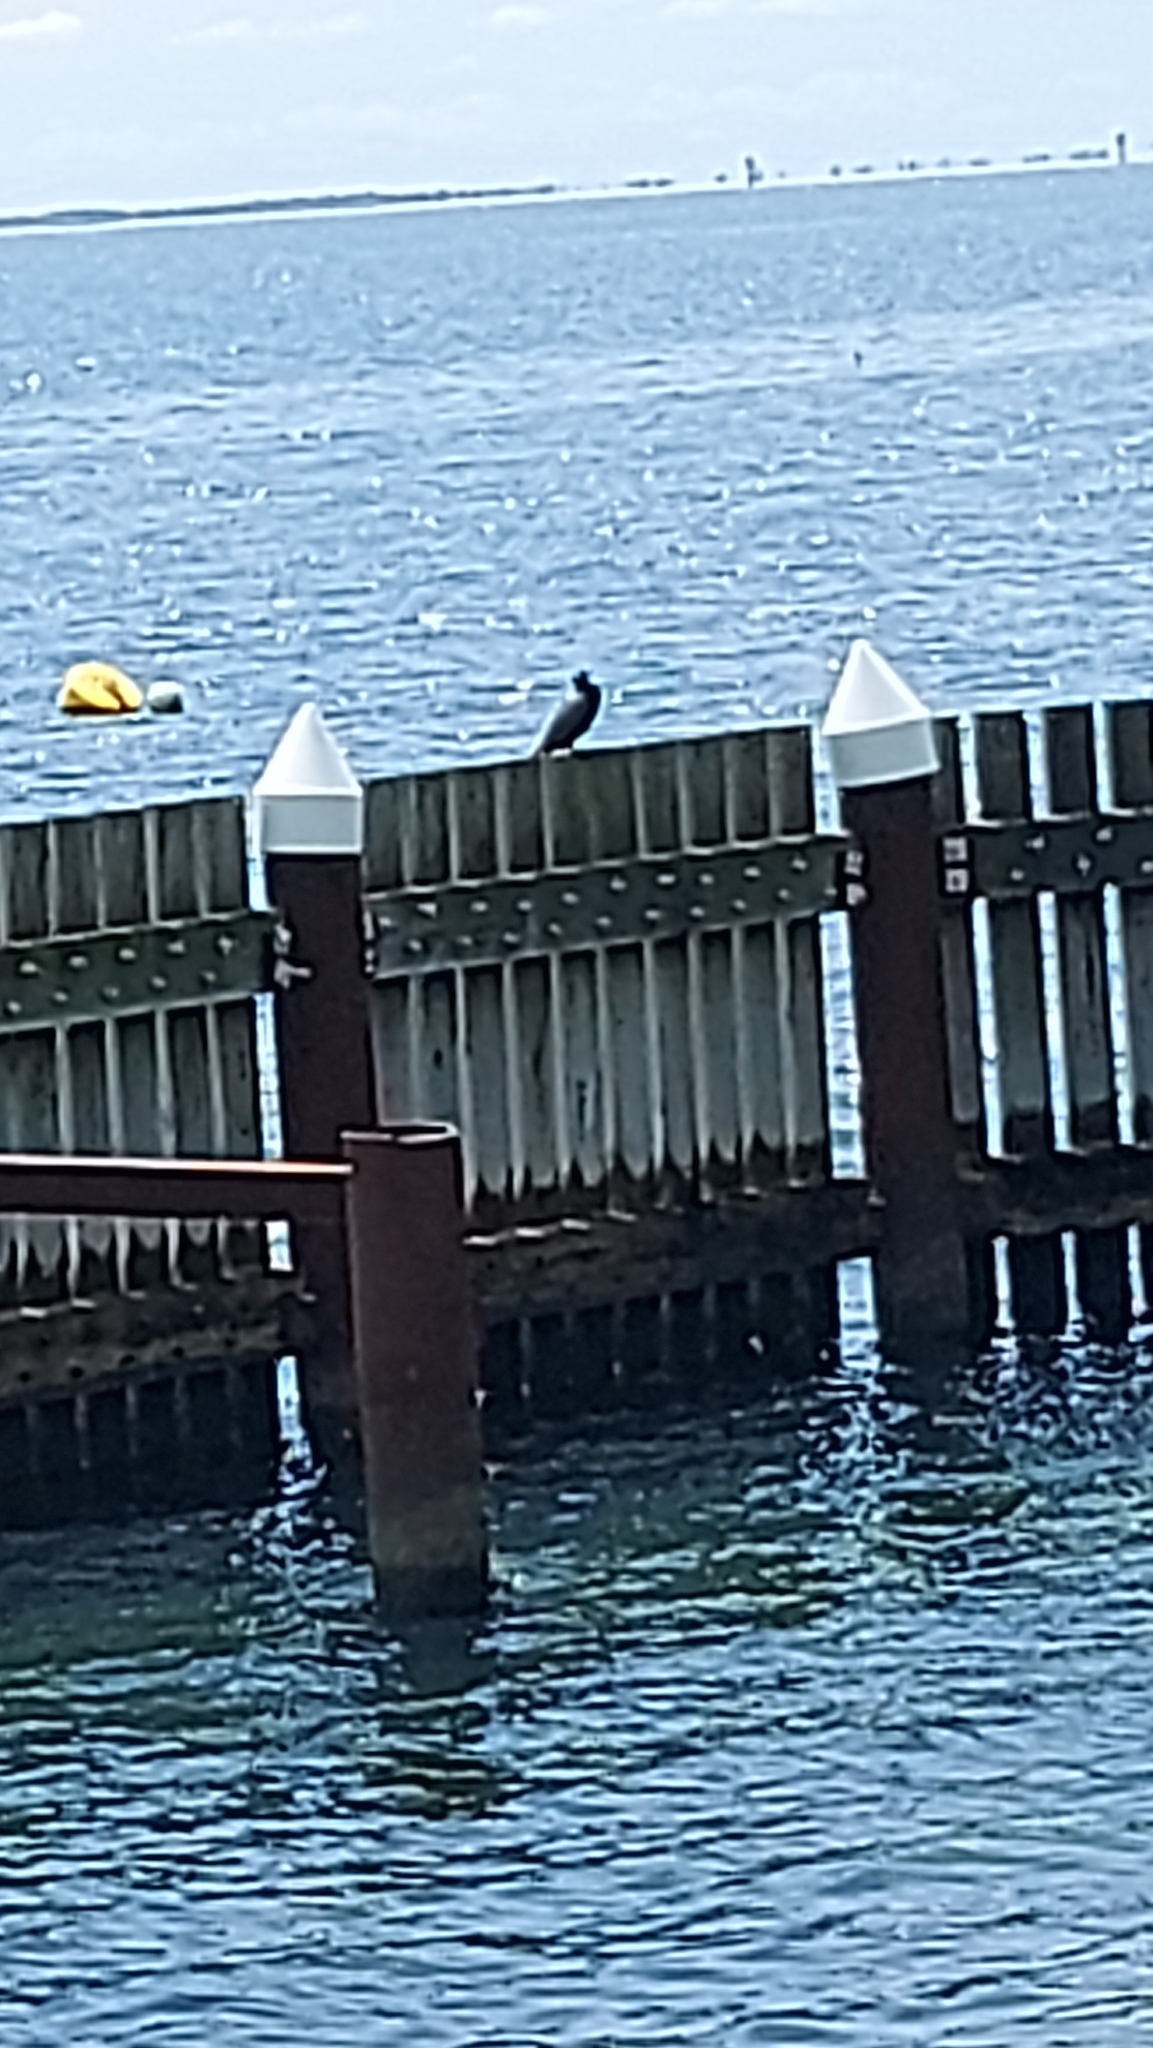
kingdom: Animalia
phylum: Chordata
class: Aves
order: Suliformes
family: Phalacrocoracidae
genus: Phalacrocorax
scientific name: Phalacrocorax sulcirostris
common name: Little black cormorant
